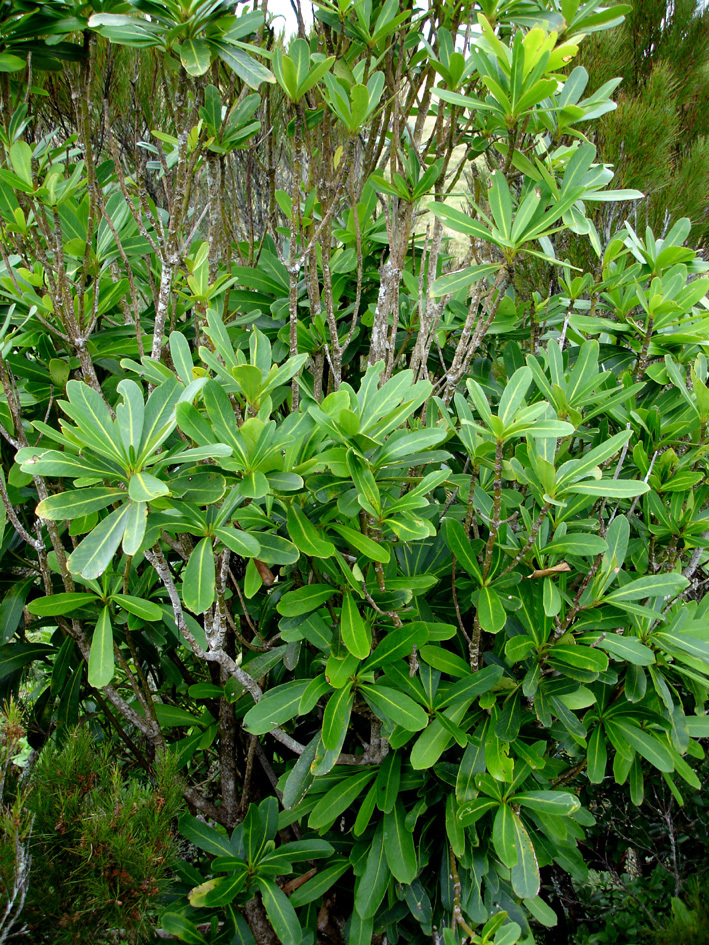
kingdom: Plantae
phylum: Tracheophyta
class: Magnoliopsida
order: Apiales
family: Araliaceae
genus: Pseudopanax
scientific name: Pseudopanax chathamicus
